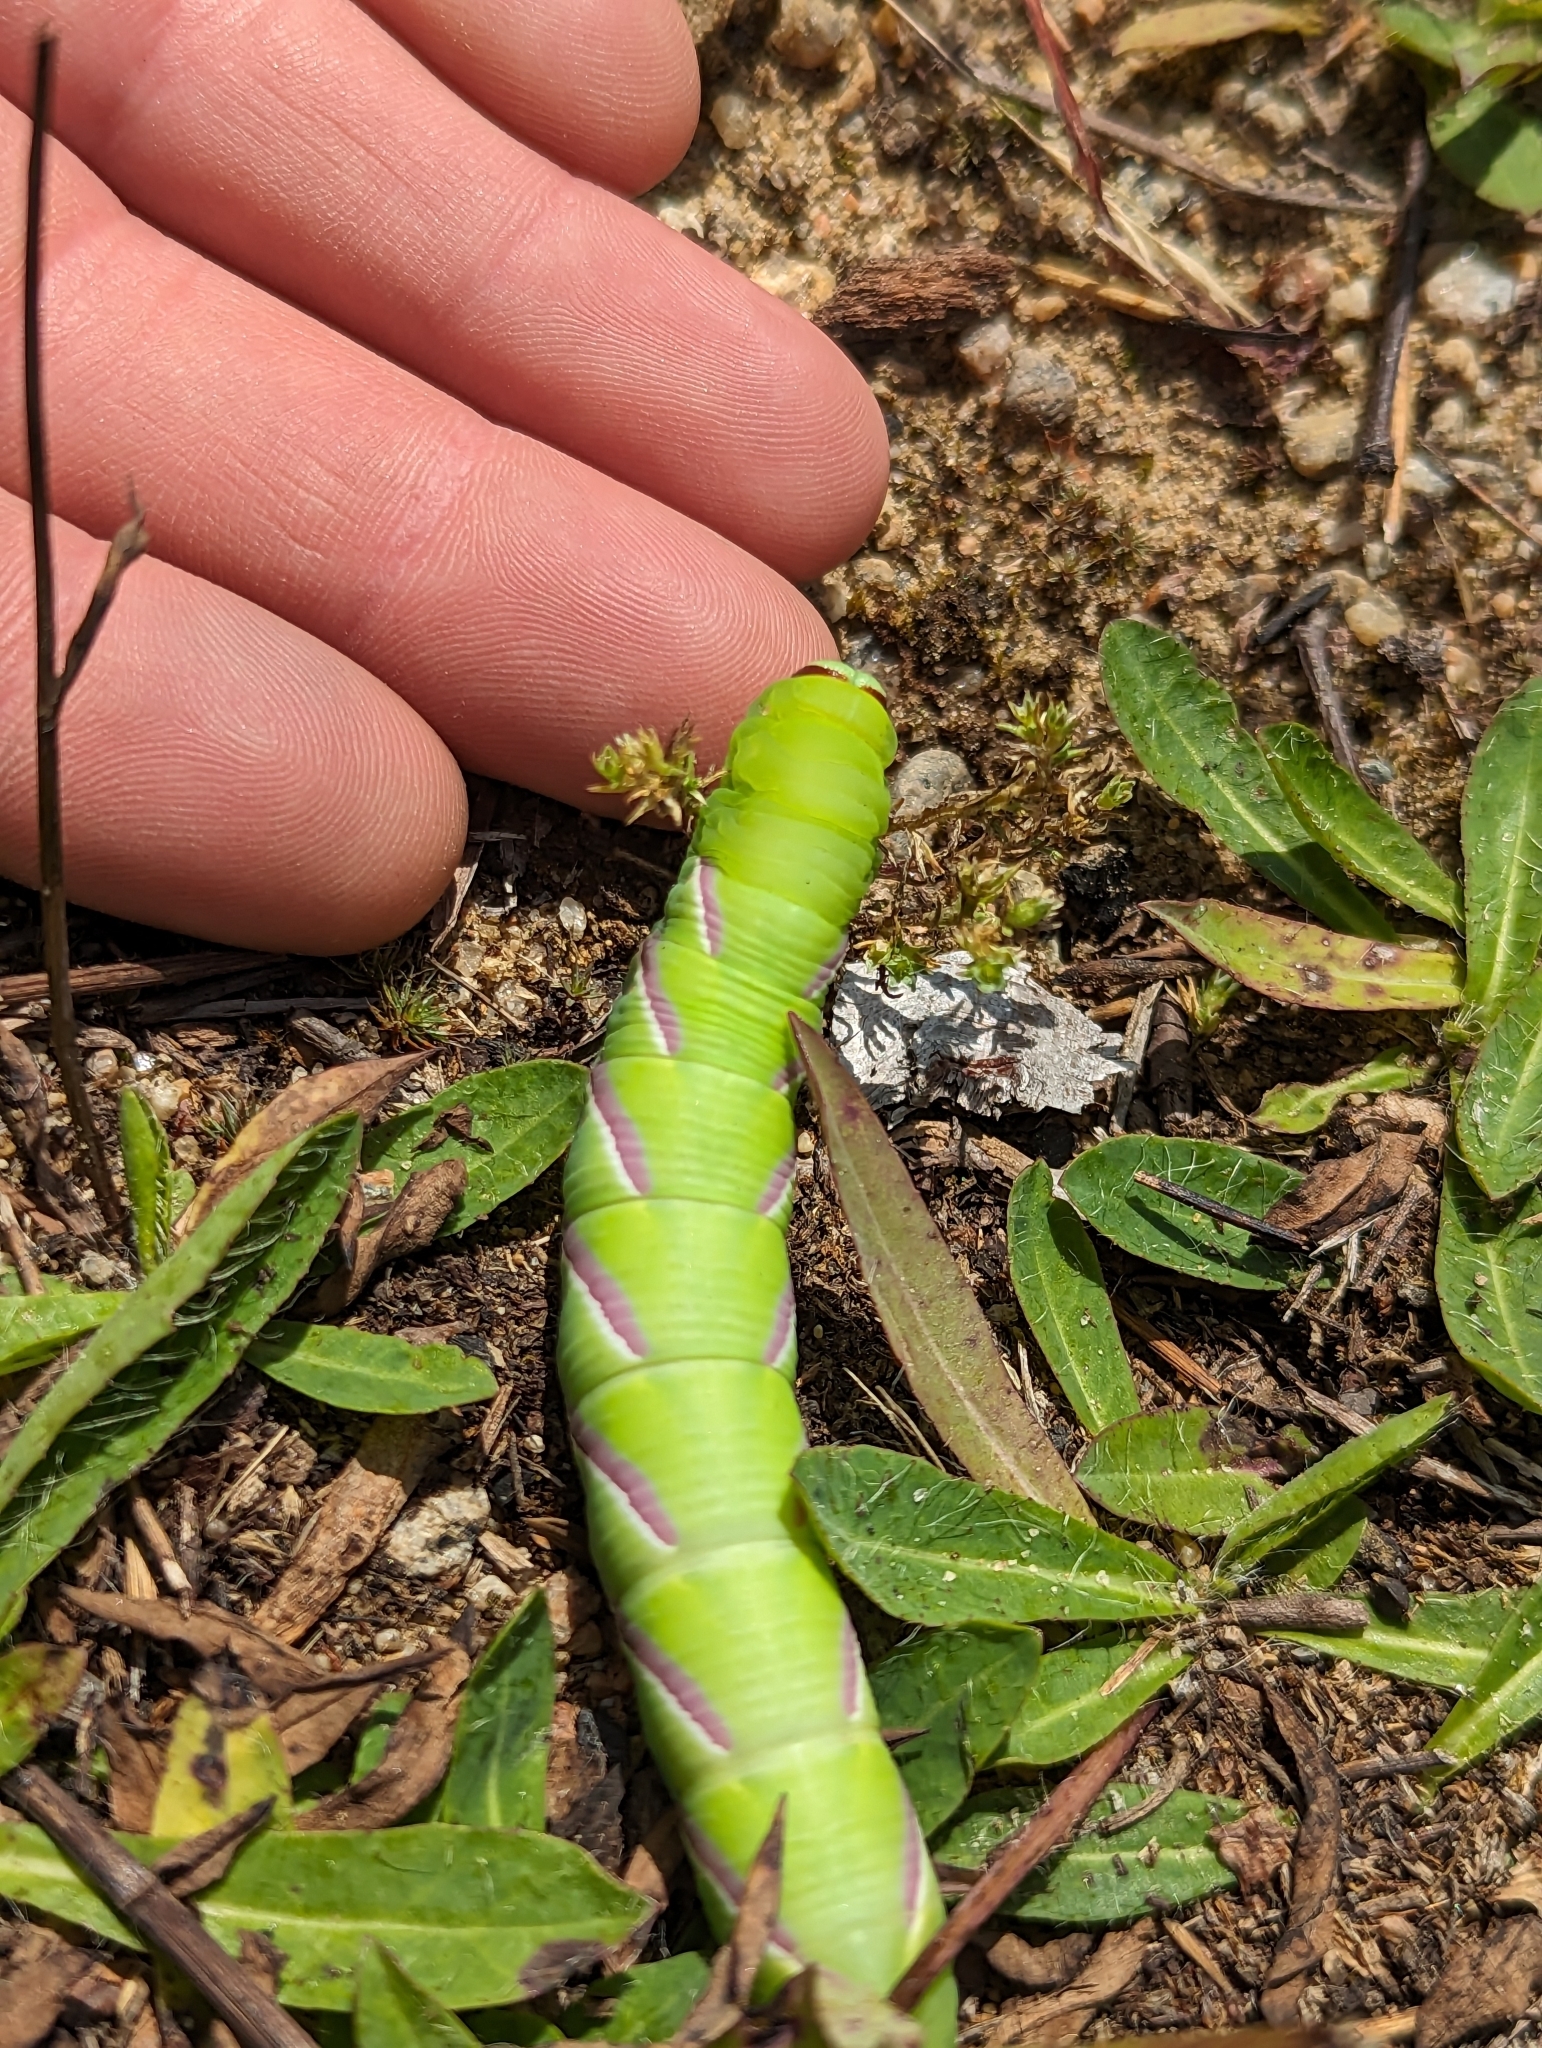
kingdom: Animalia
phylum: Arthropoda
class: Insecta
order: Lepidoptera
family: Sphingidae
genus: Sphinx
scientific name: Sphinx drupiferarum
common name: Wild cherry sphinx
